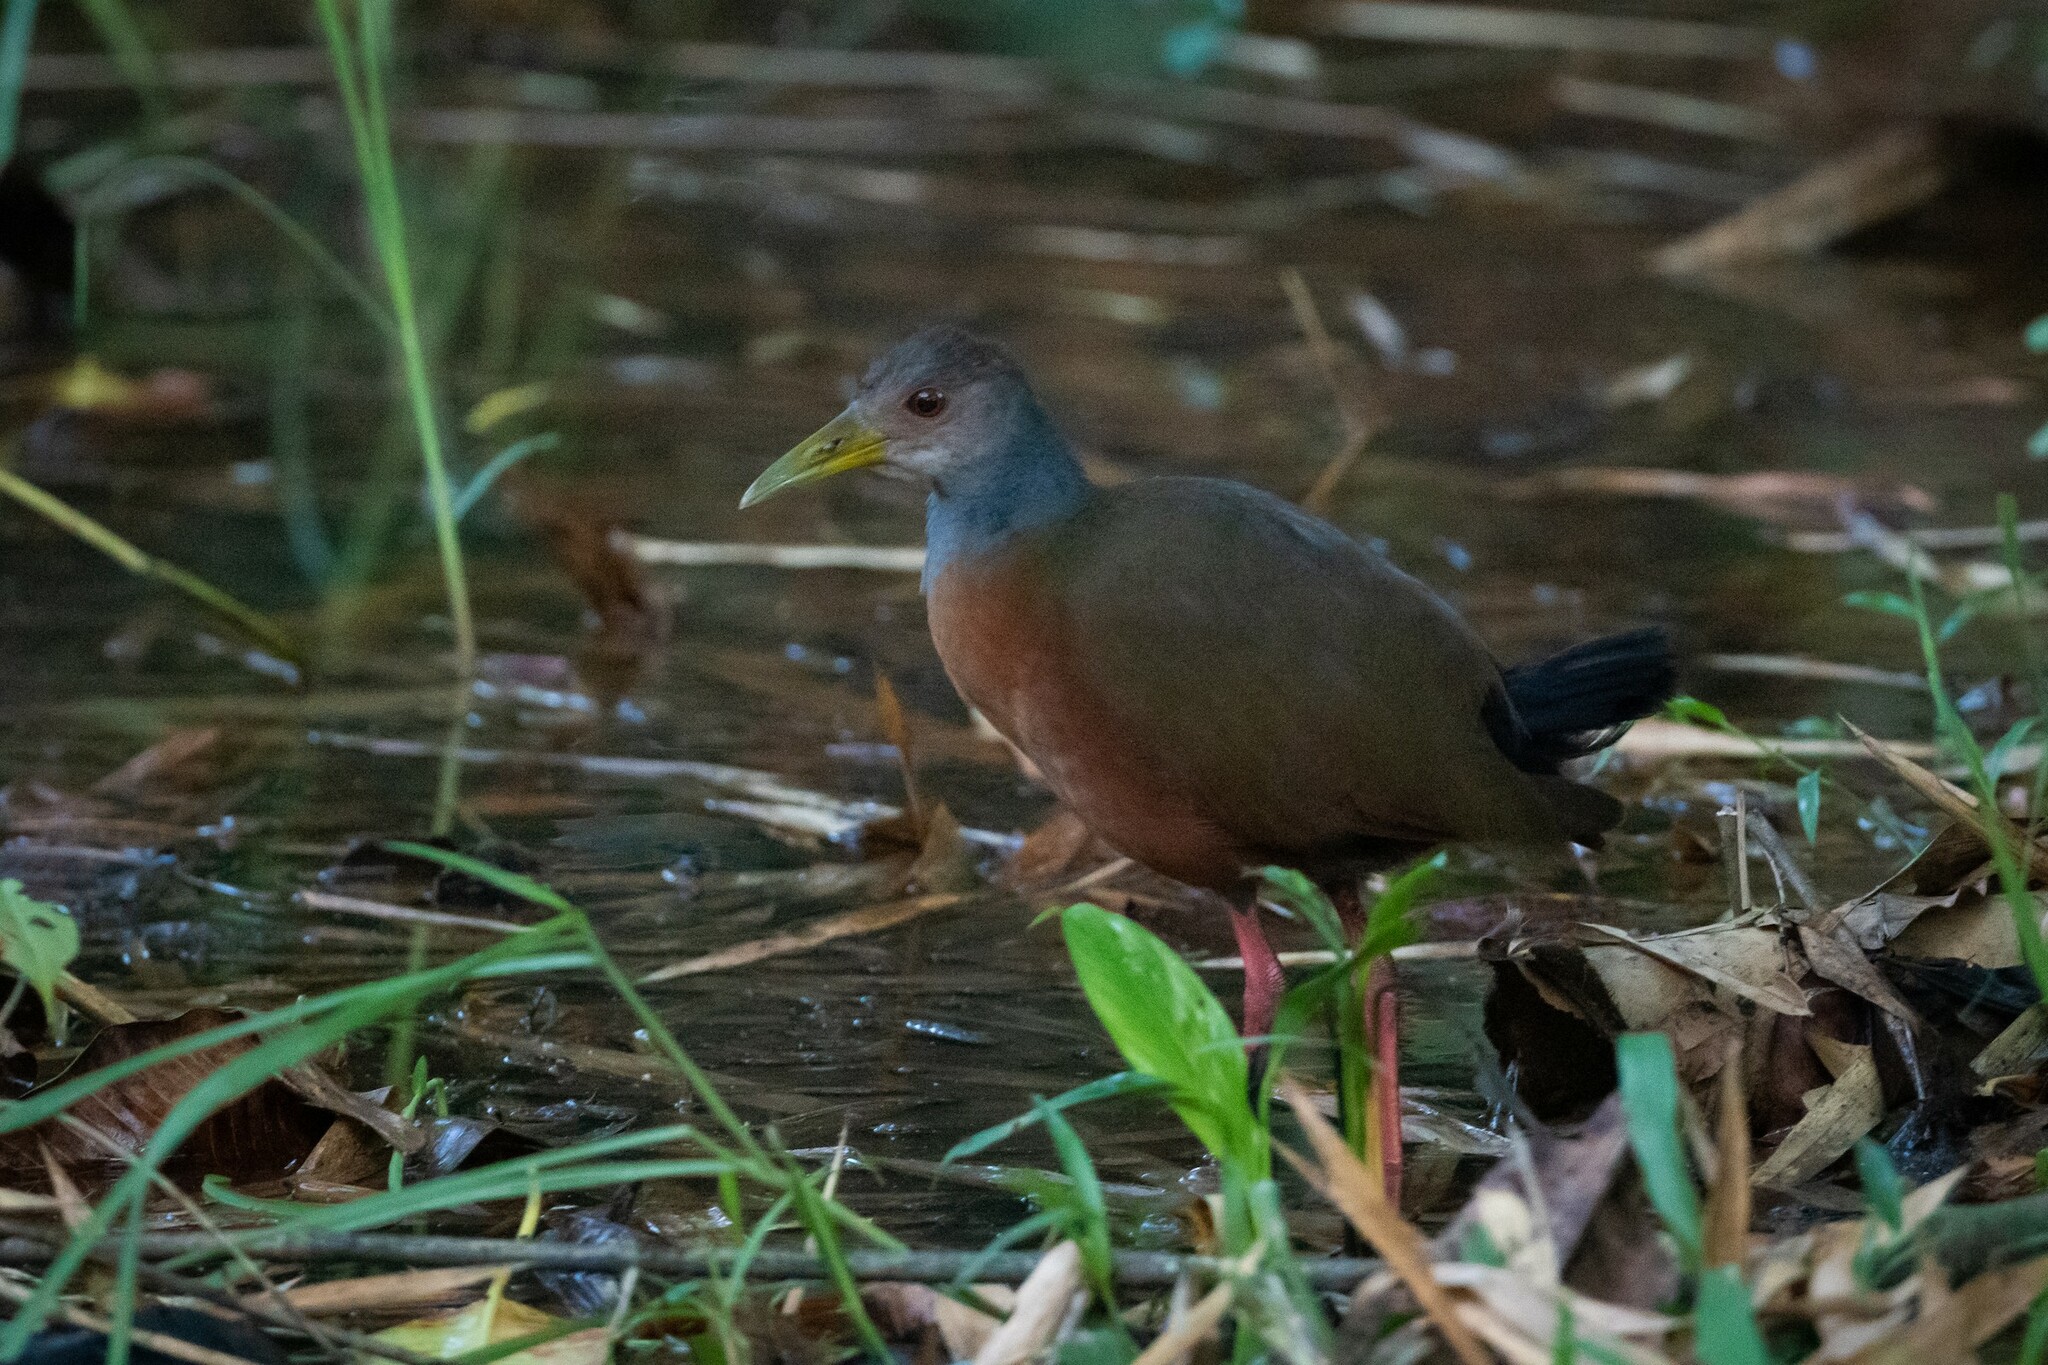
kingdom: Animalia
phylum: Chordata
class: Aves
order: Gruiformes
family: Rallidae
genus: Aramides
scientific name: Aramides cajanea
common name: Gray-necked wood-rail
